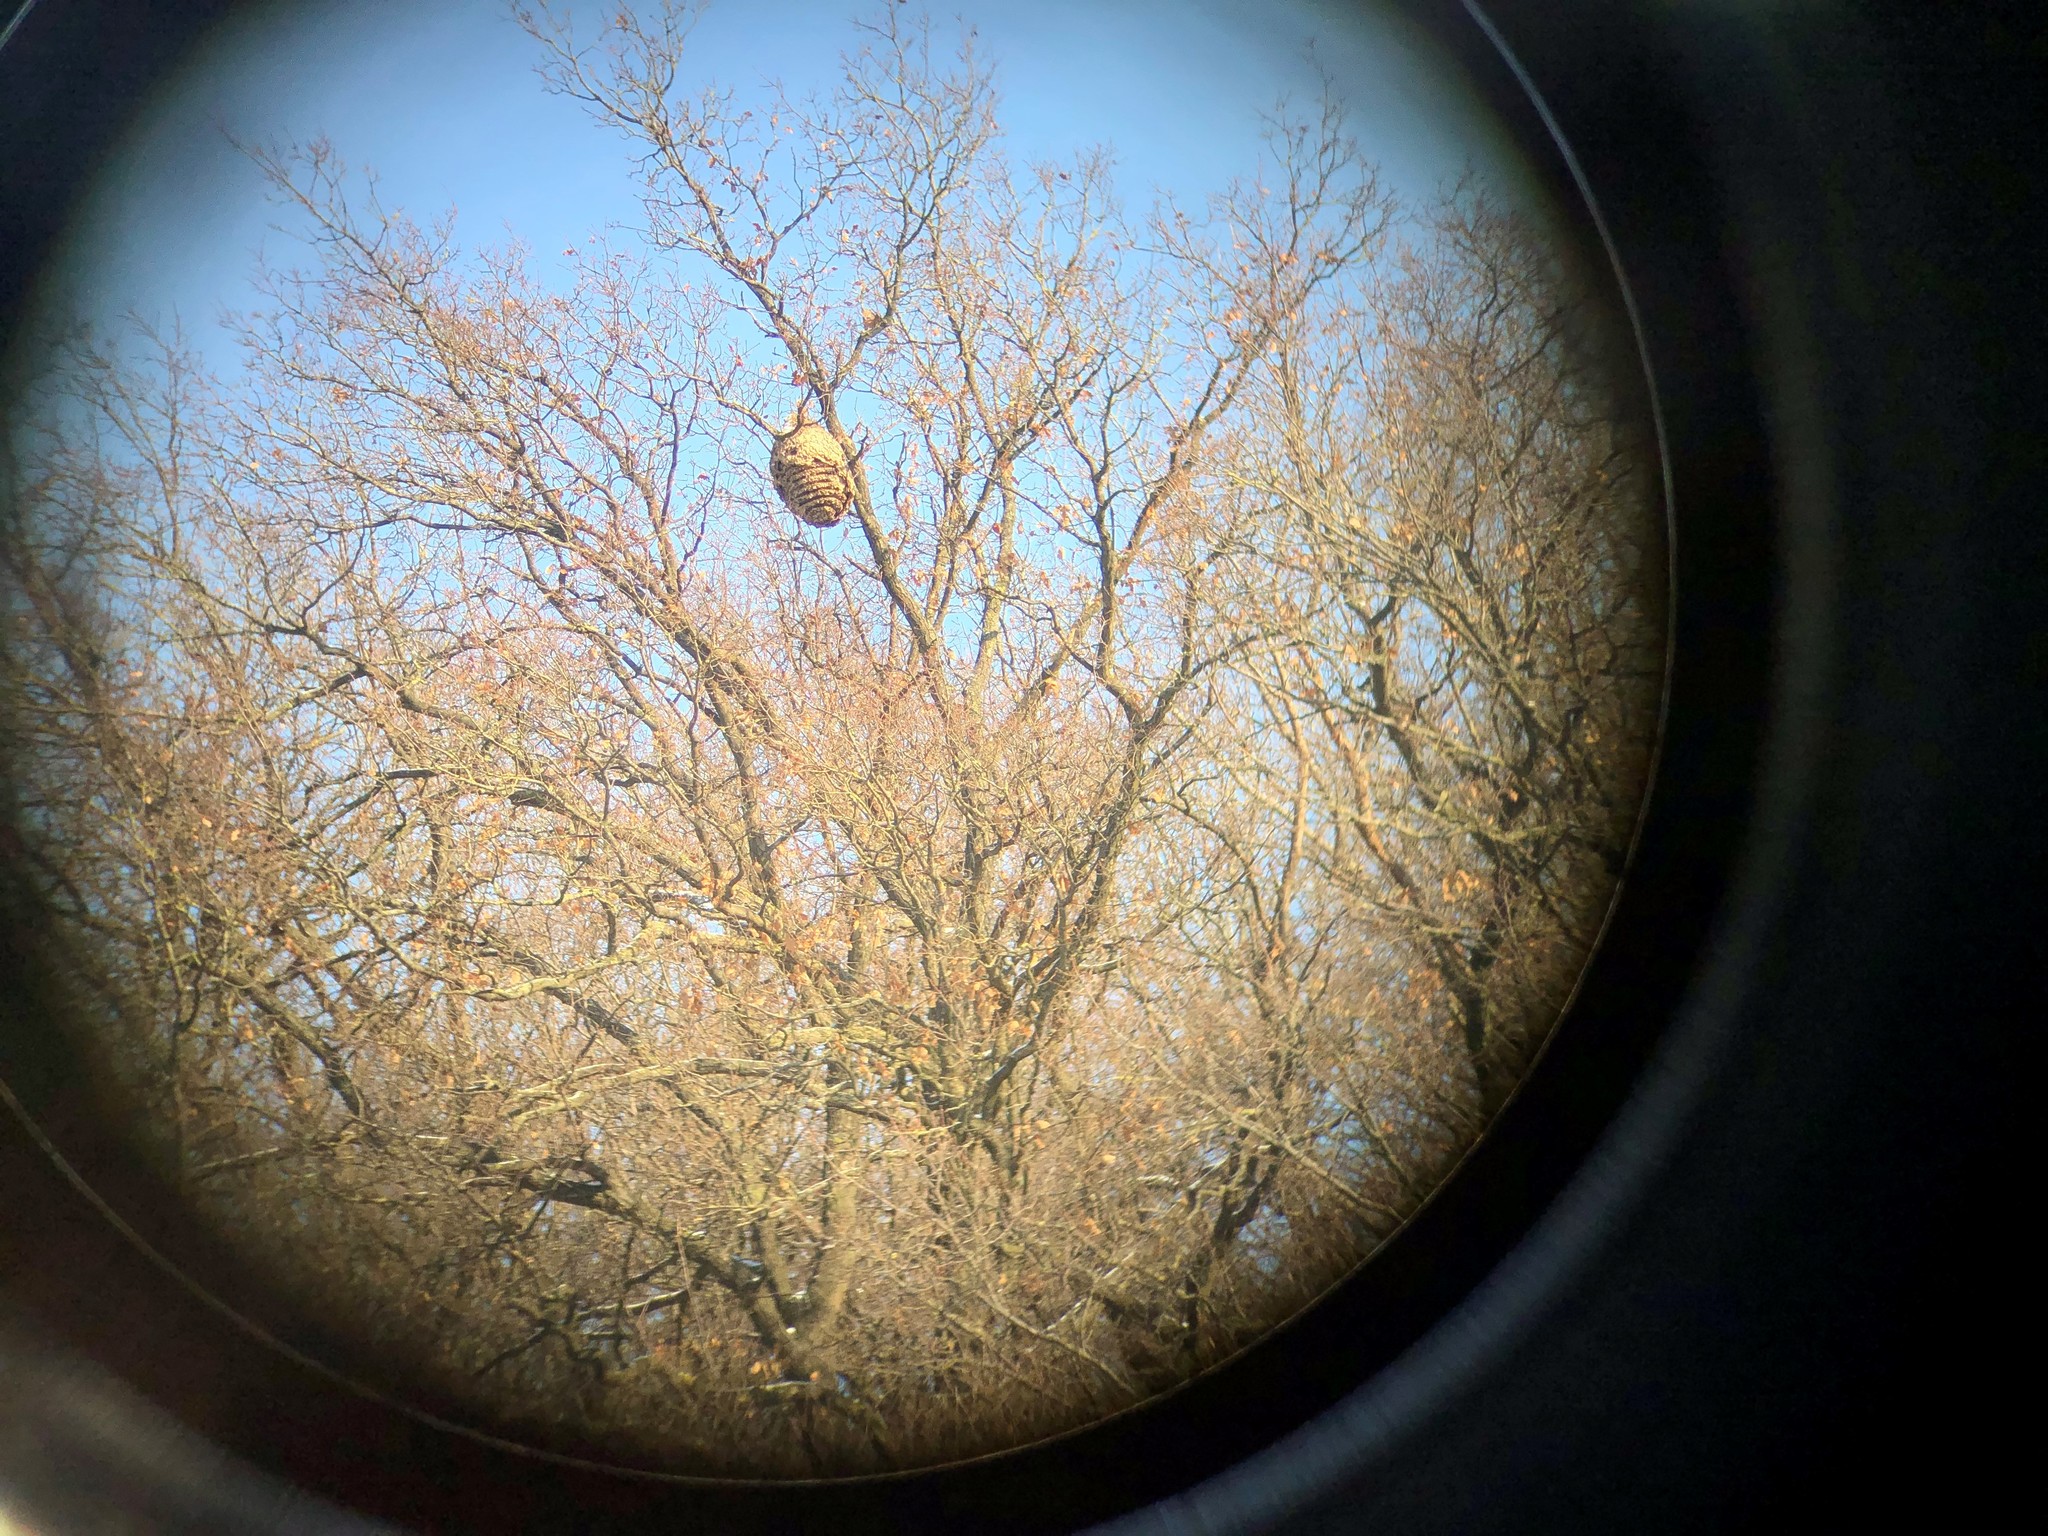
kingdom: Animalia
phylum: Arthropoda
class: Insecta
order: Hymenoptera
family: Vespidae
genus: Vespa
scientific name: Vespa velutina
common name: Asian hornet
